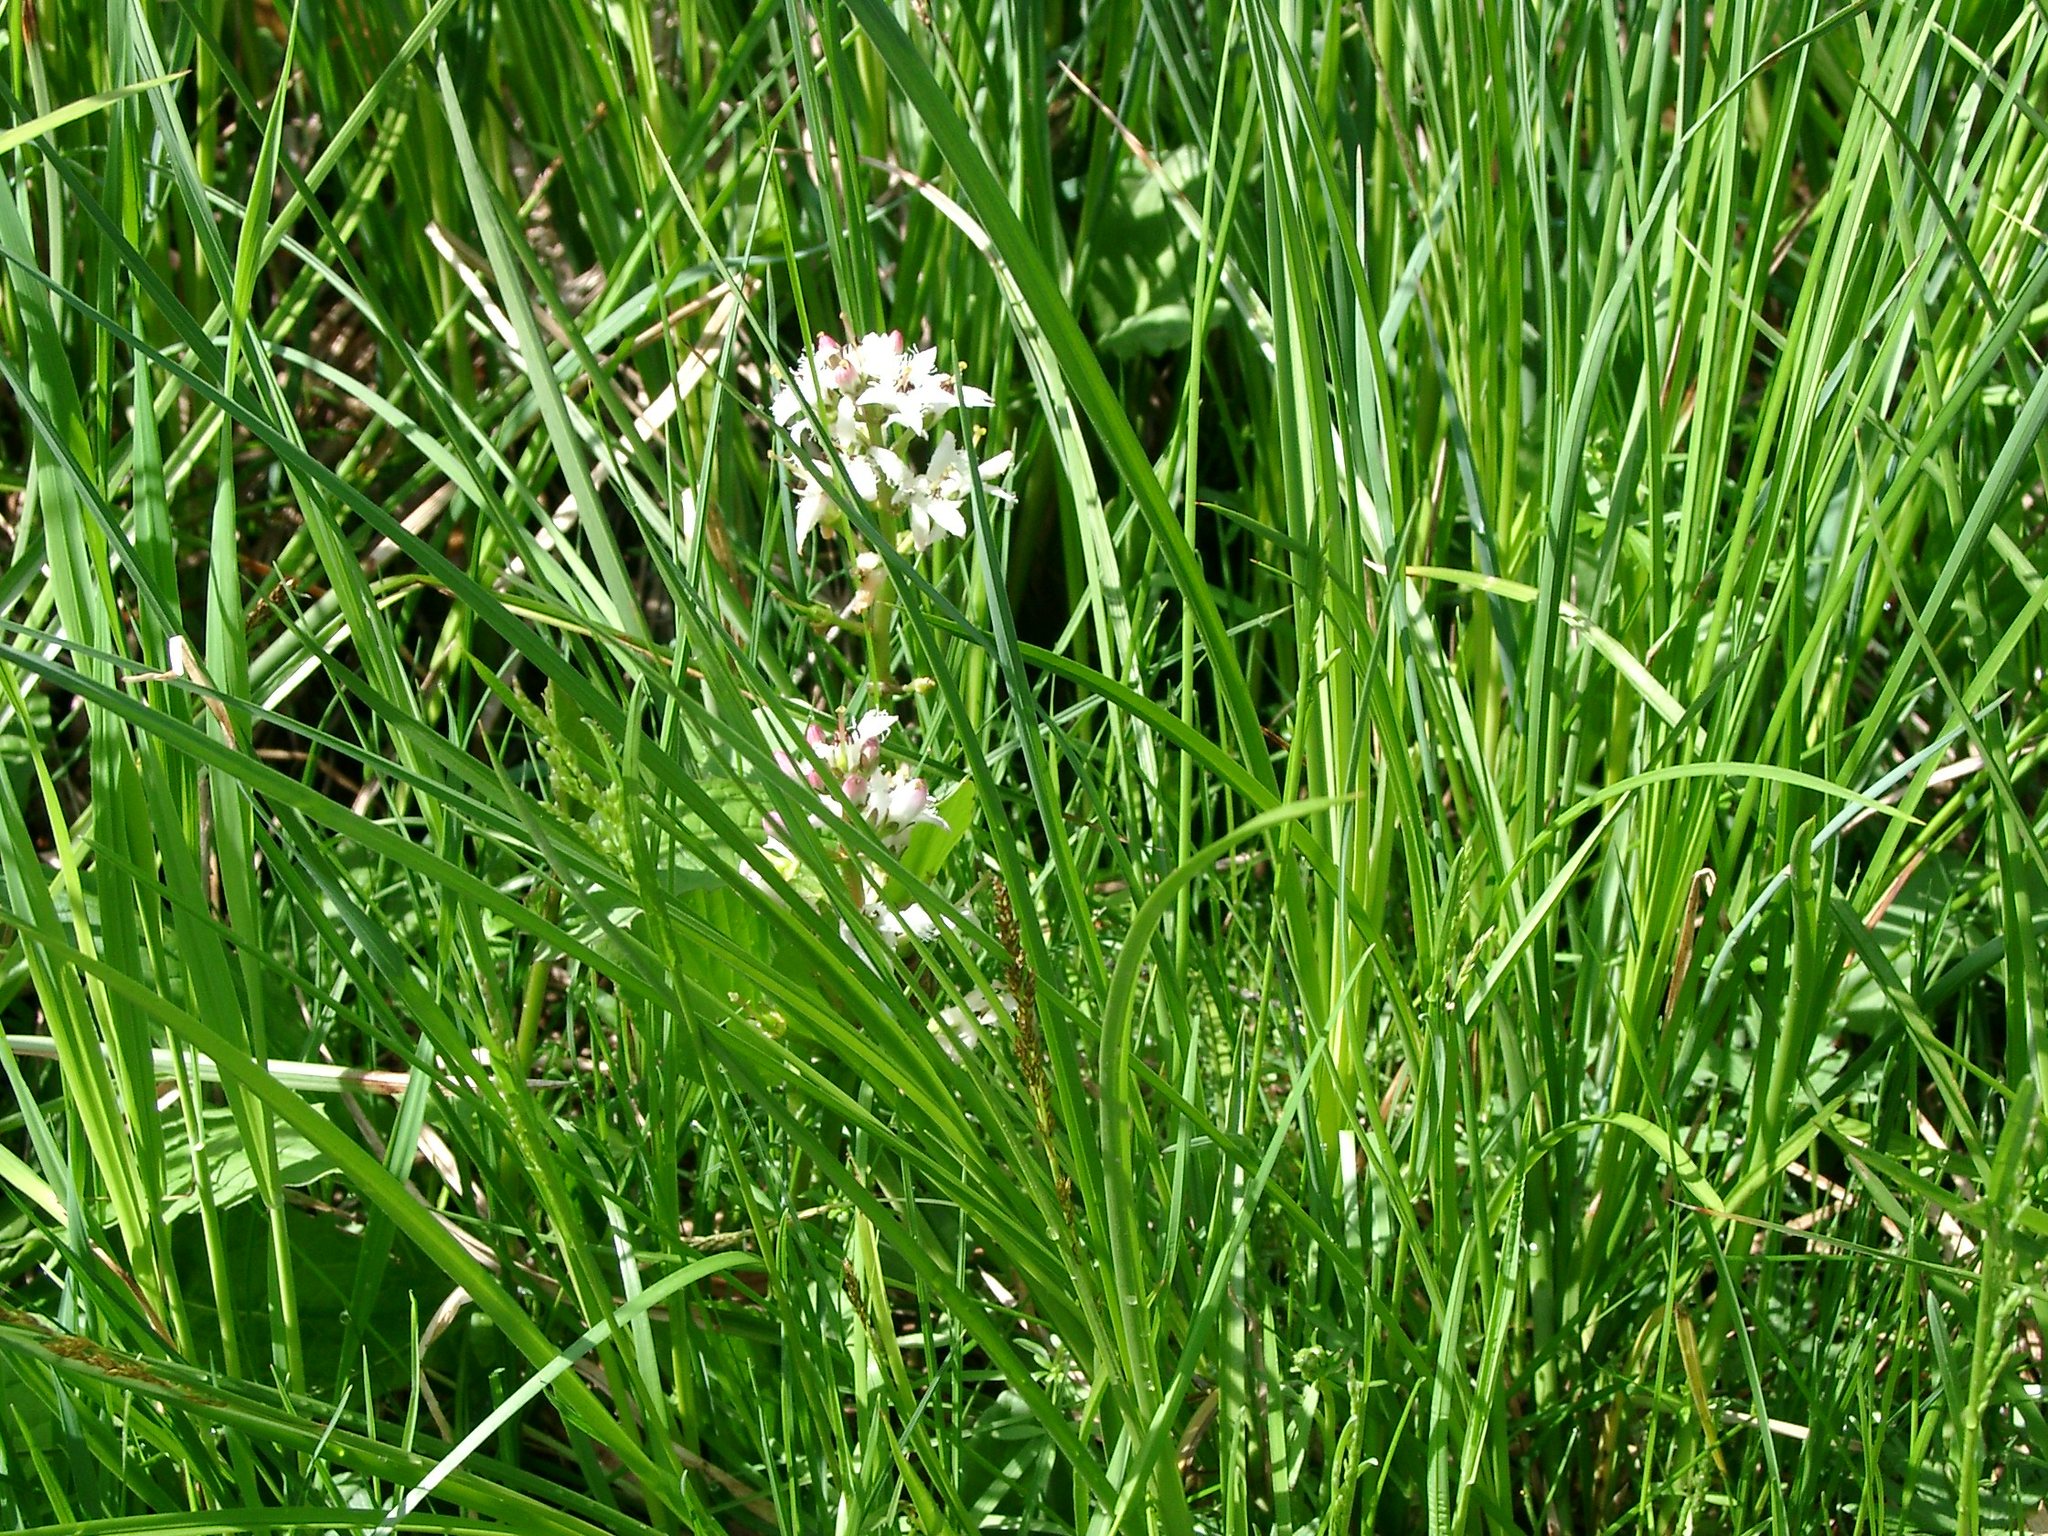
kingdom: Plantae
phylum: Tracheophyta
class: Magnoliopsida
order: Asterales
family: Menyanthaceae
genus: Menyanthes
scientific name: Menyanthes trifoliata
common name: Bogbean
